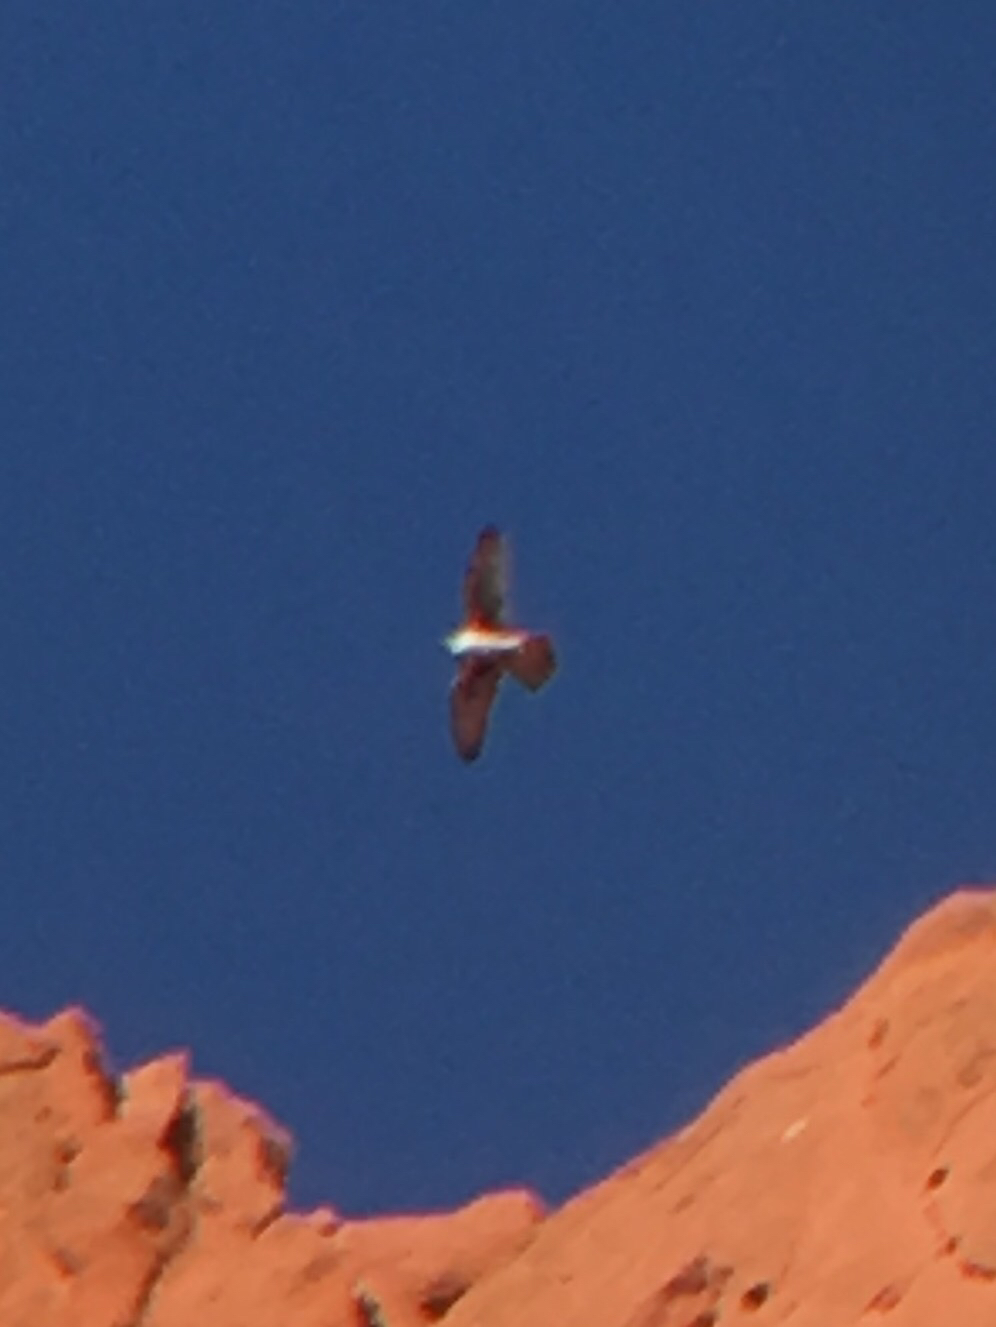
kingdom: Animalia
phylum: Chordata
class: Aves
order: Falconiformes
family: Falconidae
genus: Falco
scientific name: Falco mexicanus
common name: Prairie falcon
